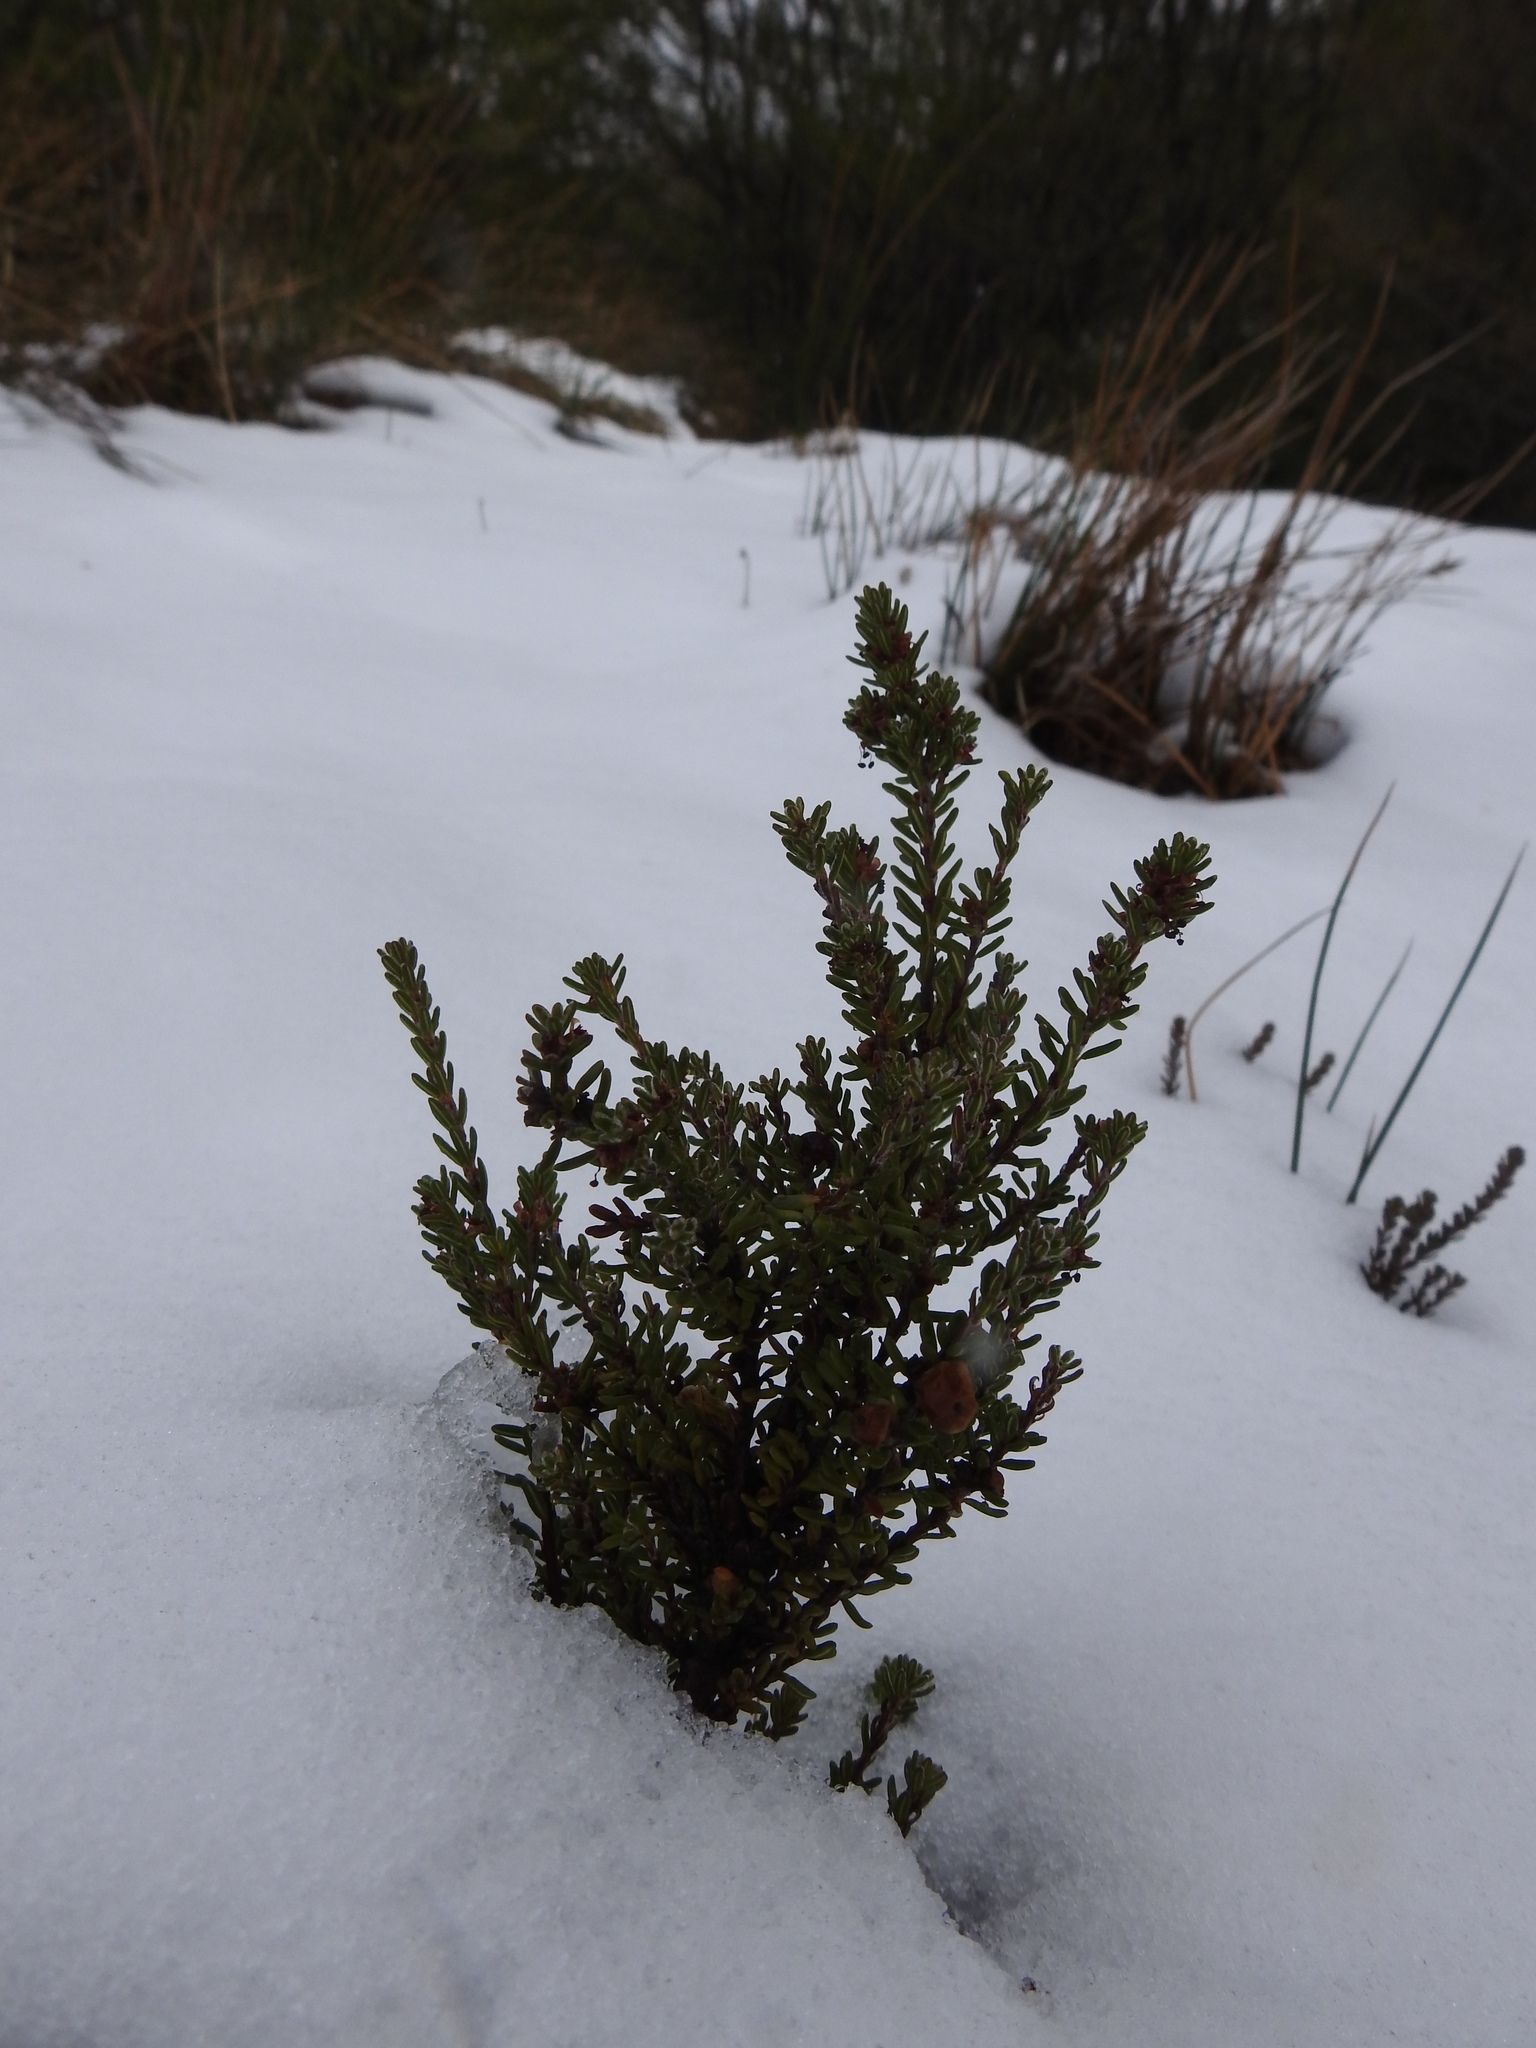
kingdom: Plantae
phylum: Tracheophyta
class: Magnoliopsida
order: Ericales
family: Ericaceae
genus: Empetrum
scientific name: Empetrum rubrum
